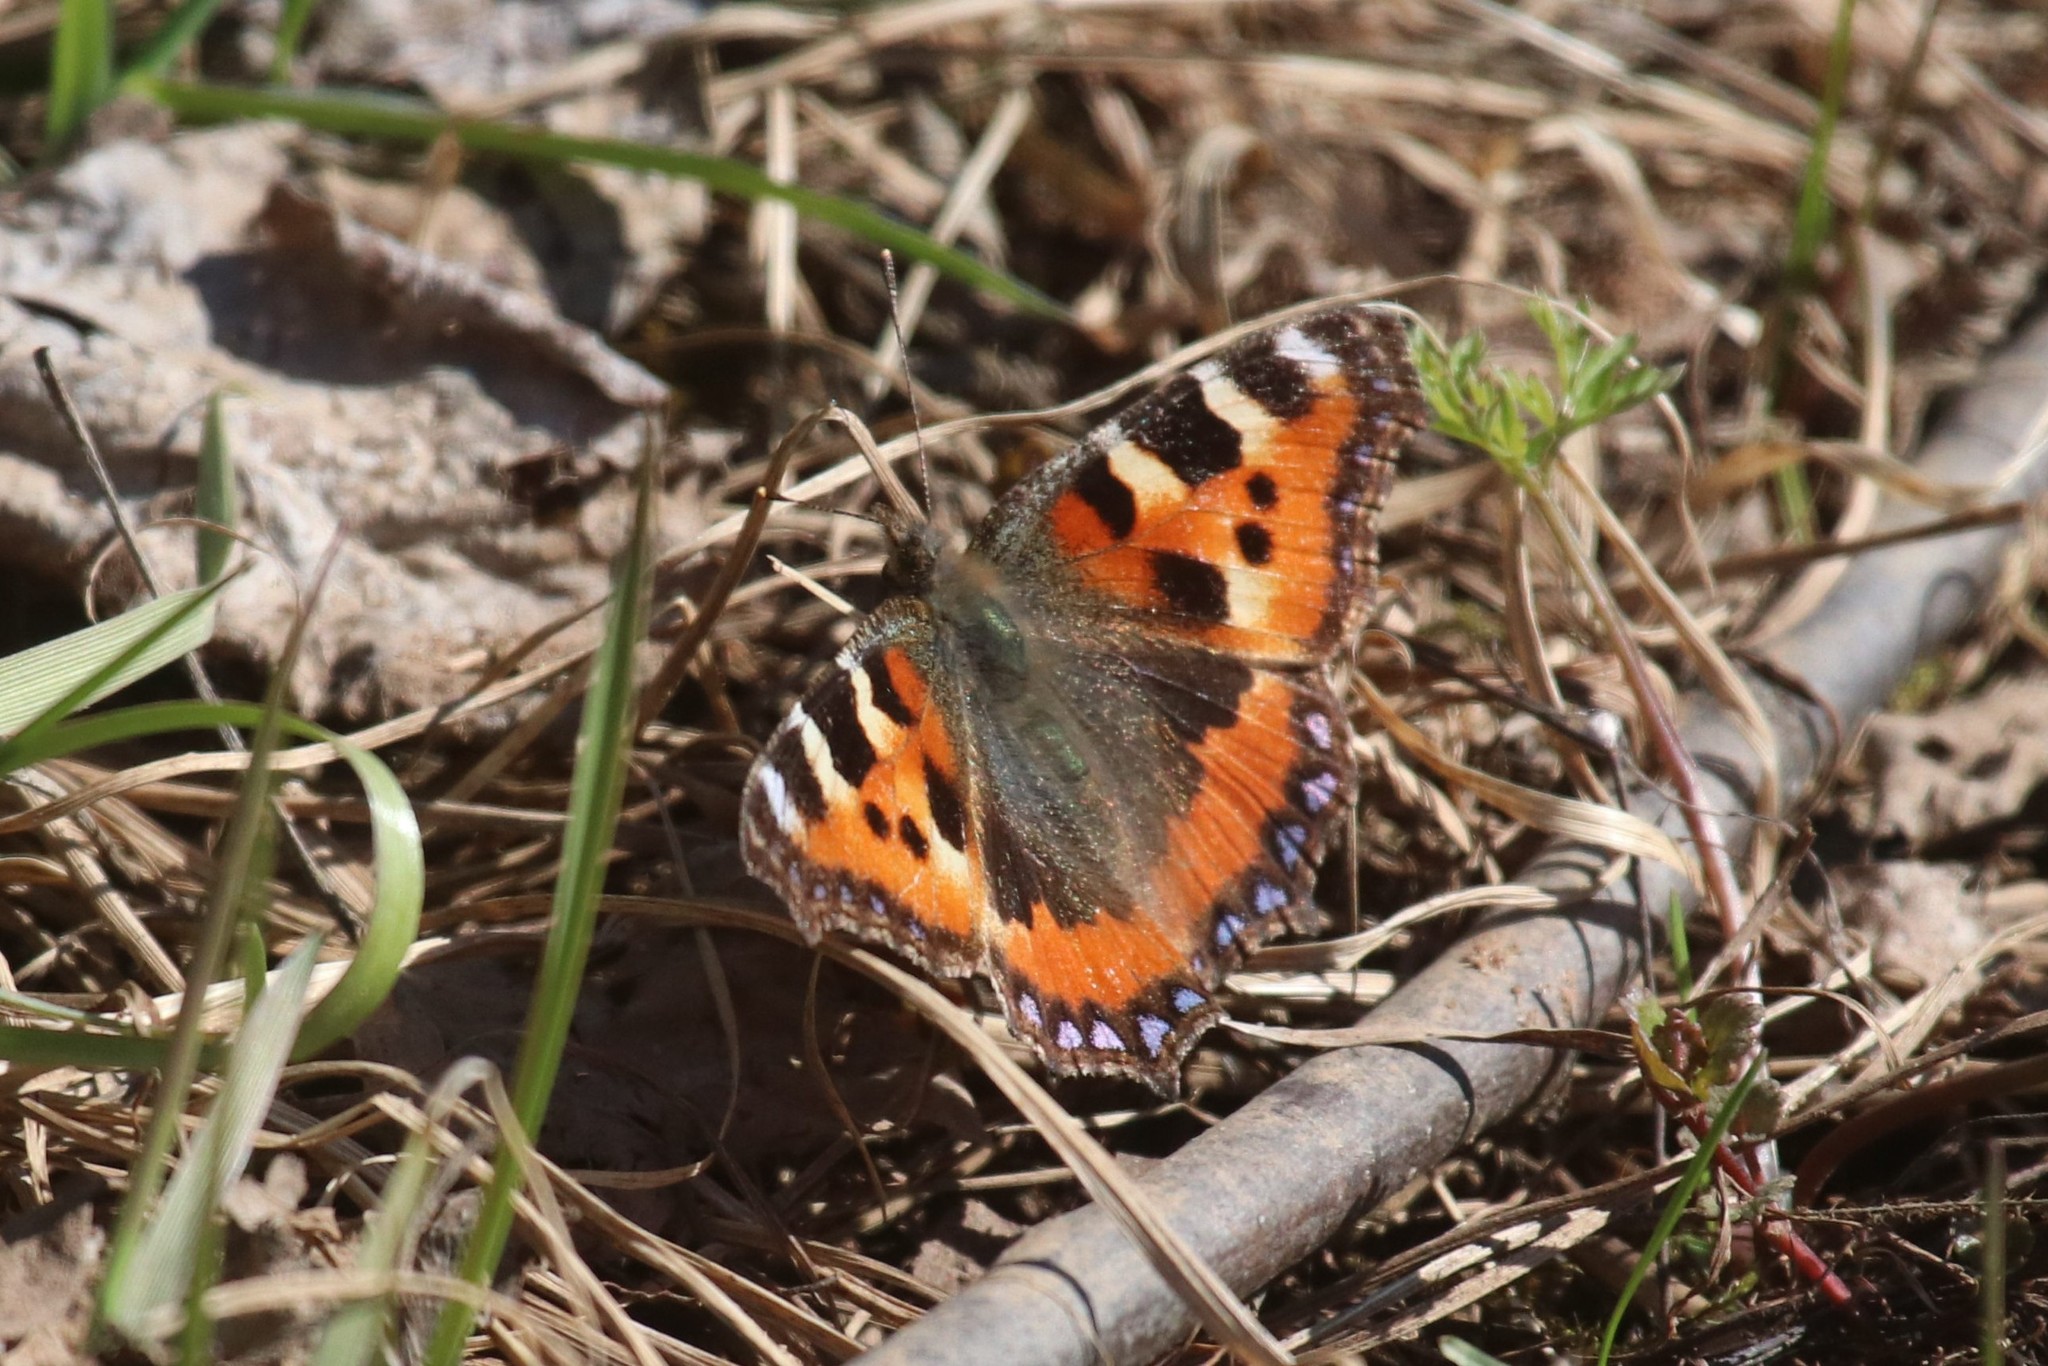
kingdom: Animalia
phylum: Arthropoda
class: Insecta
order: Lepidoptera
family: Nymphalidae
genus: Aglais
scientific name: Aglais urticae
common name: Small tortoiseshell
